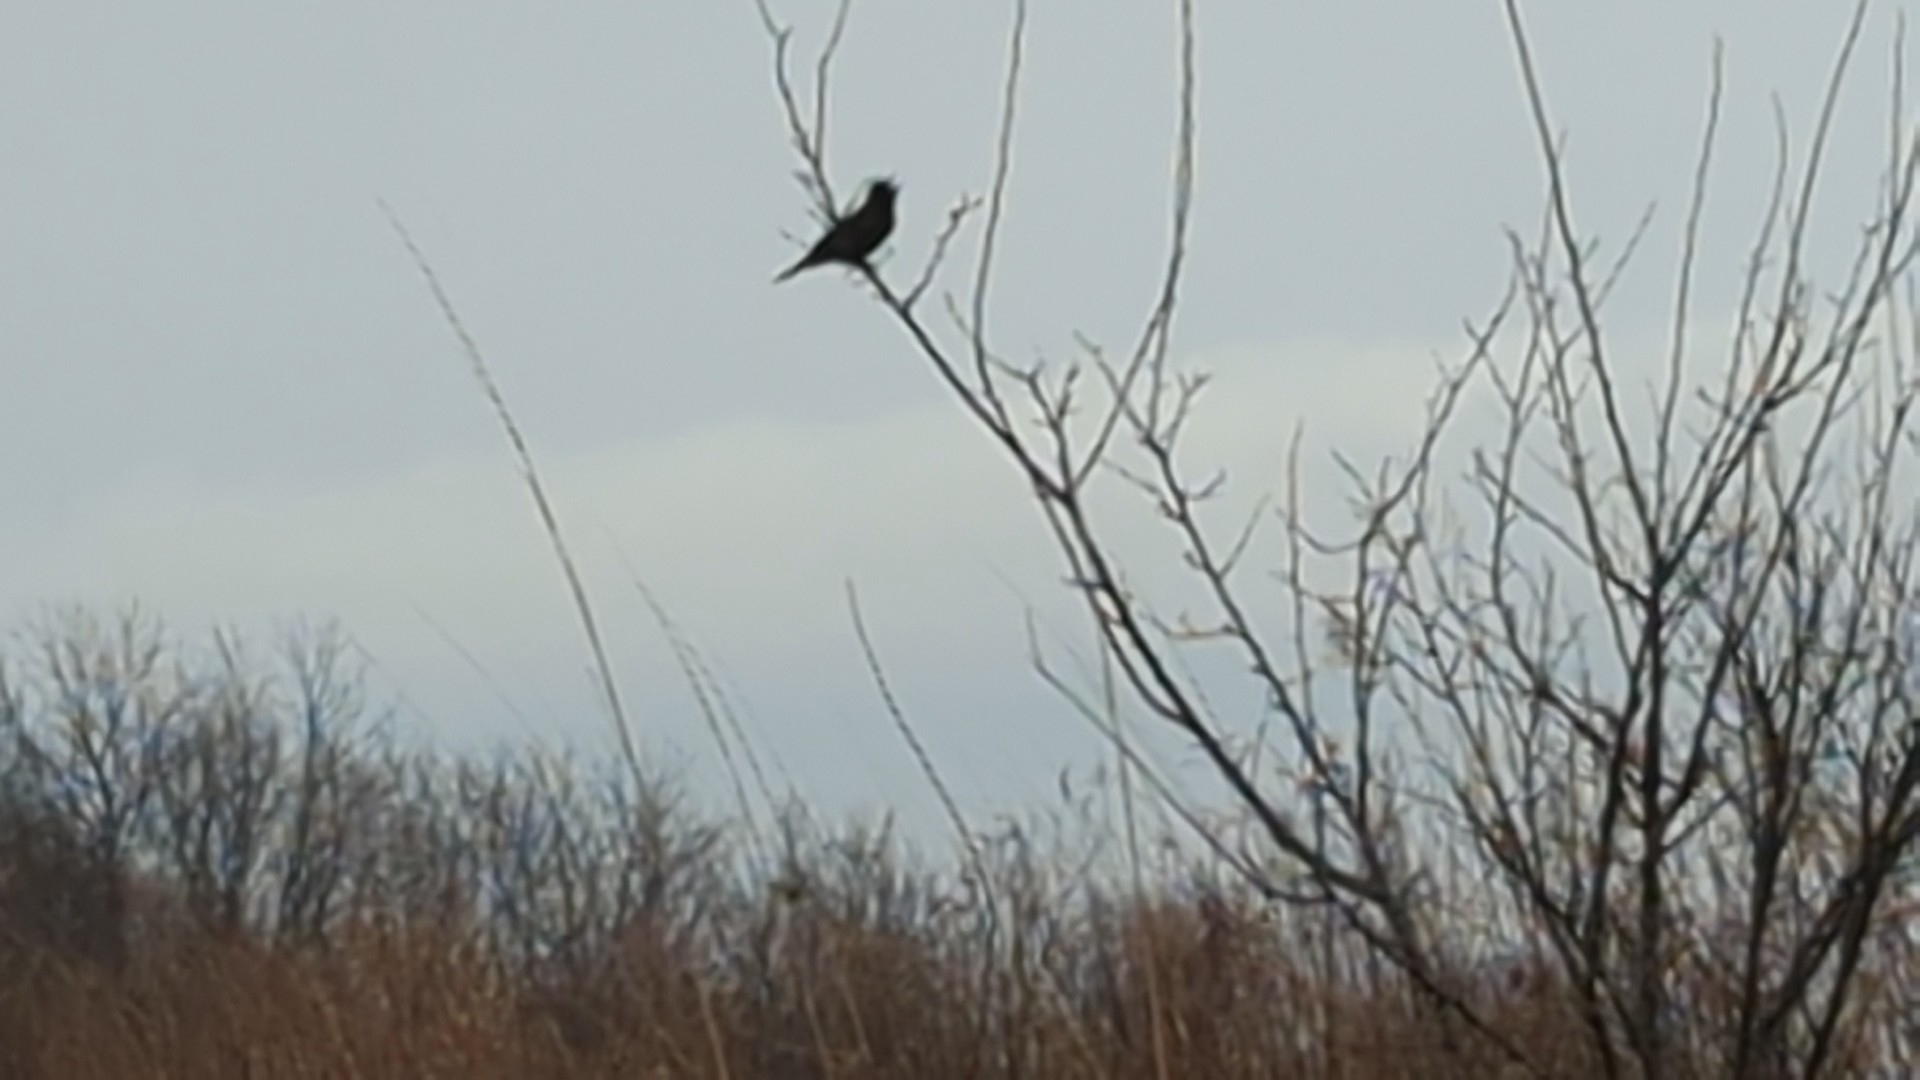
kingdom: Animalia
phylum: Chordata
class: Aves
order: Passeriformes
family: Icteridae
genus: Agelaius
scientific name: Agelaius phoeniceus
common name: Red-winged blackbird
